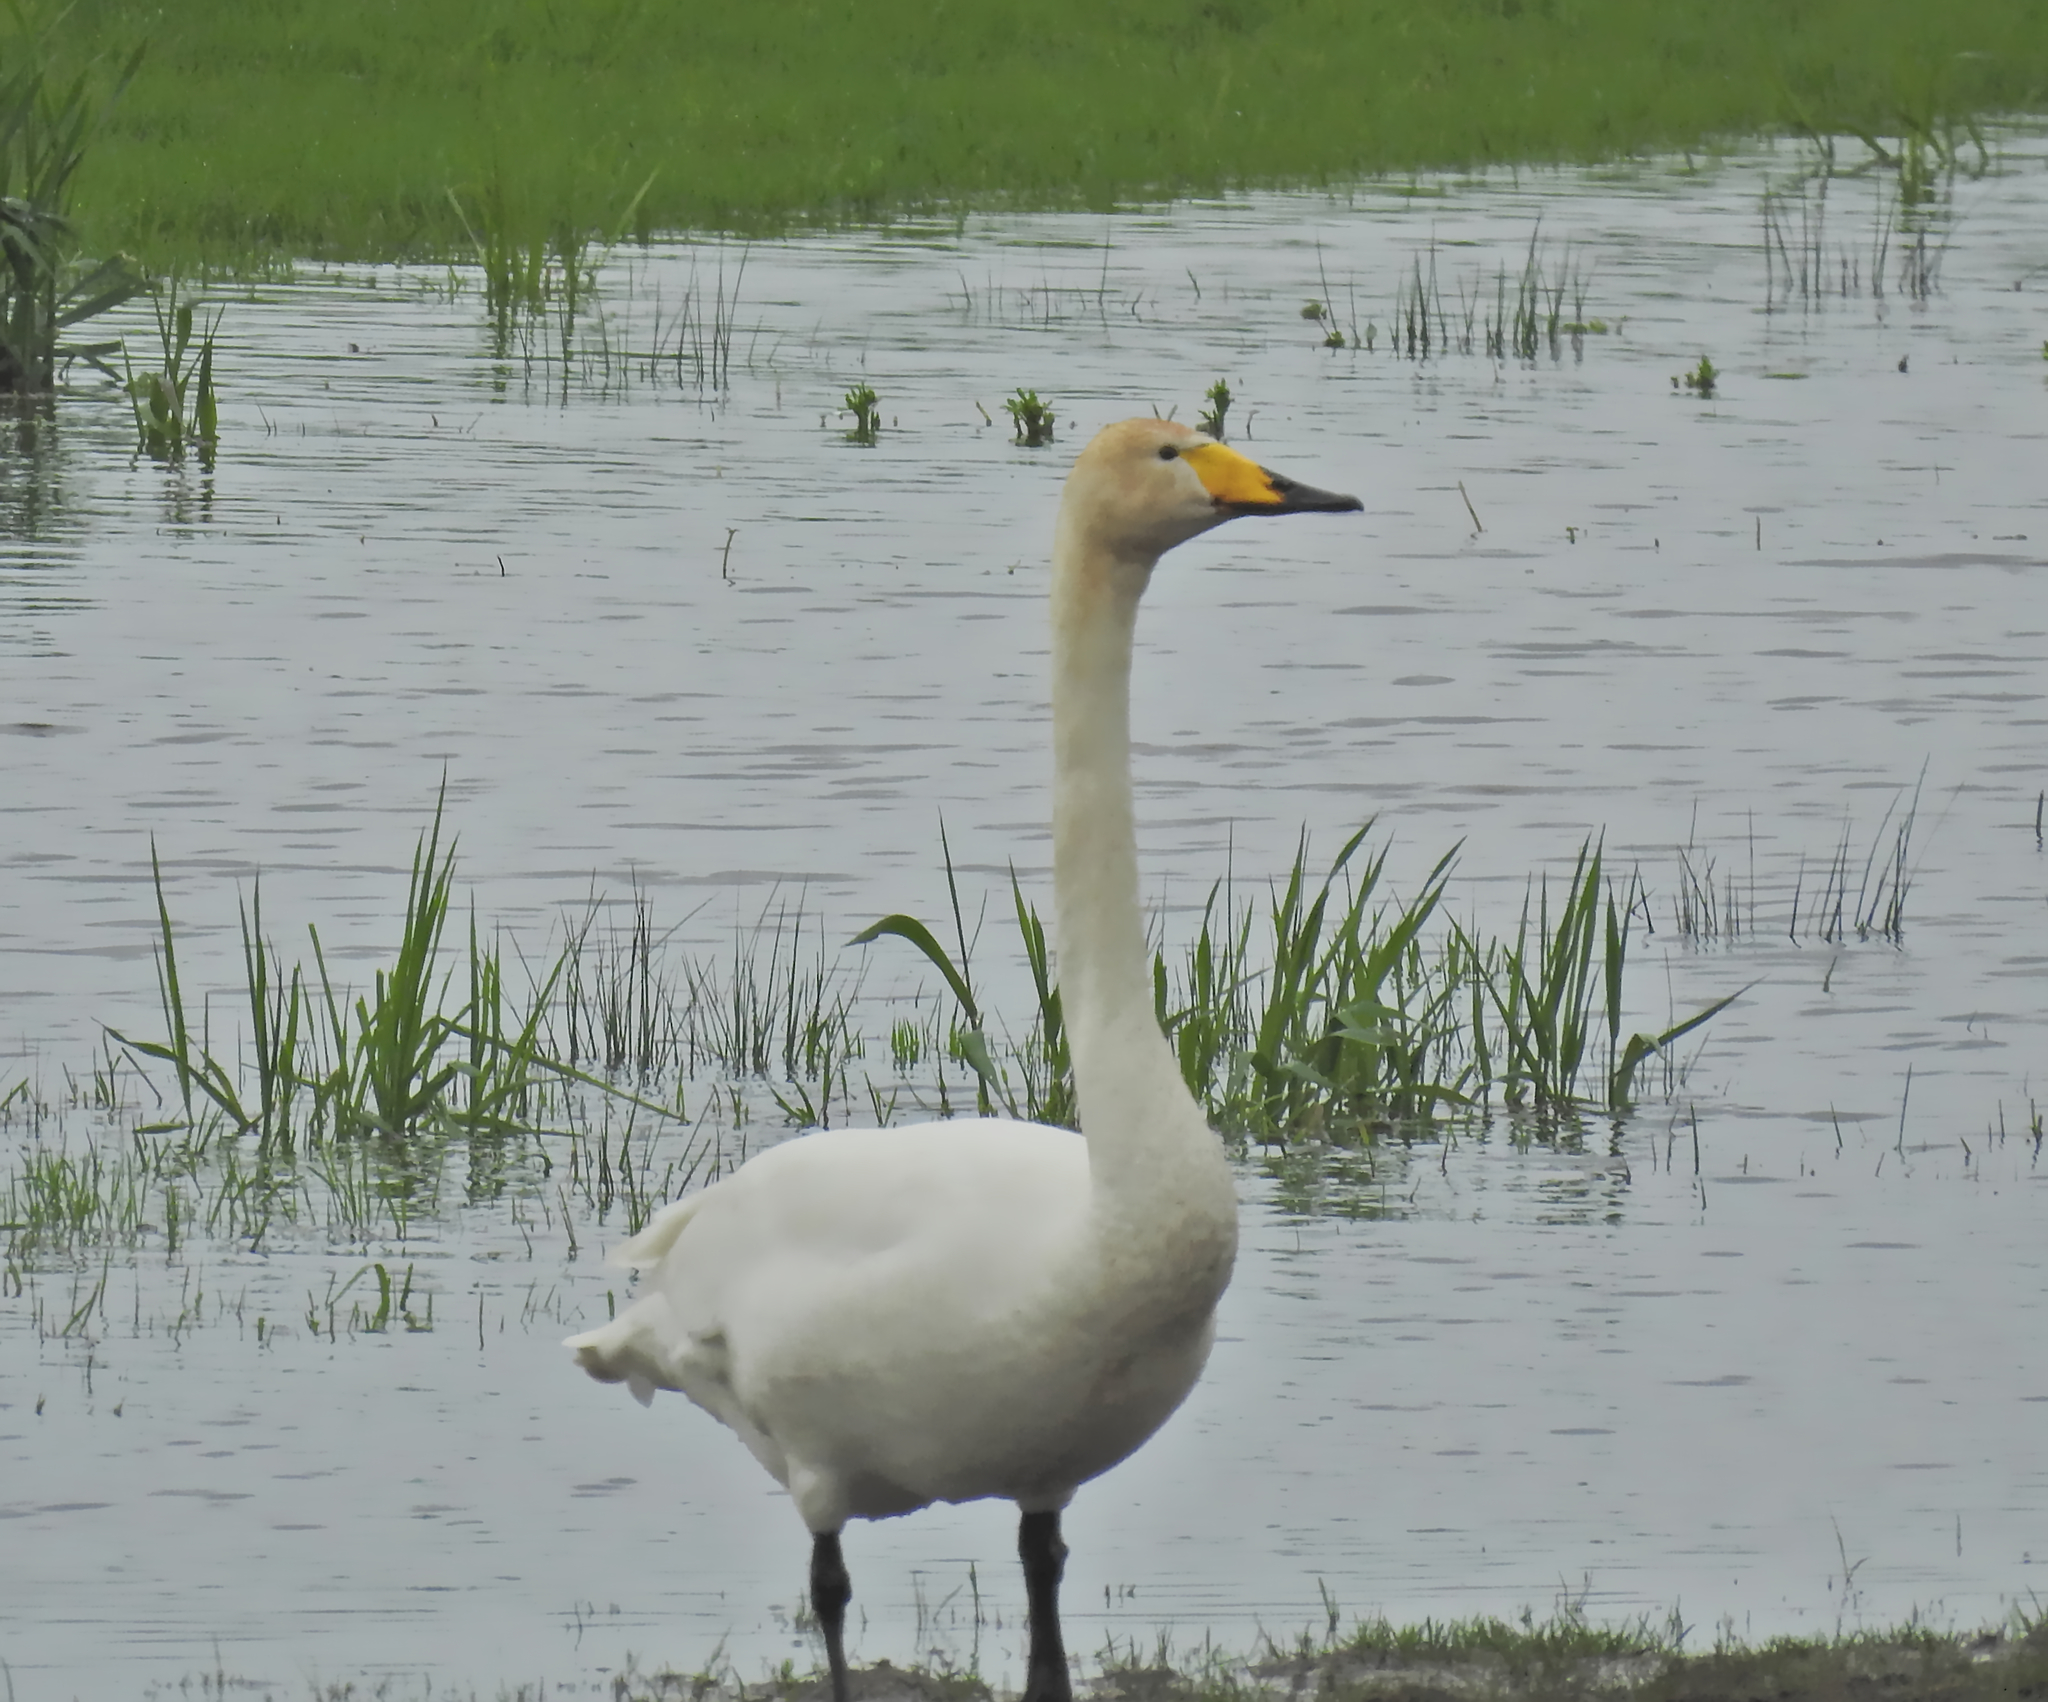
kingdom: Animalia
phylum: Chordata
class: Aves
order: Anseriformes
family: Anatidae
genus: Cygnus
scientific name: Cygnus cygnus
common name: Whooper swan
